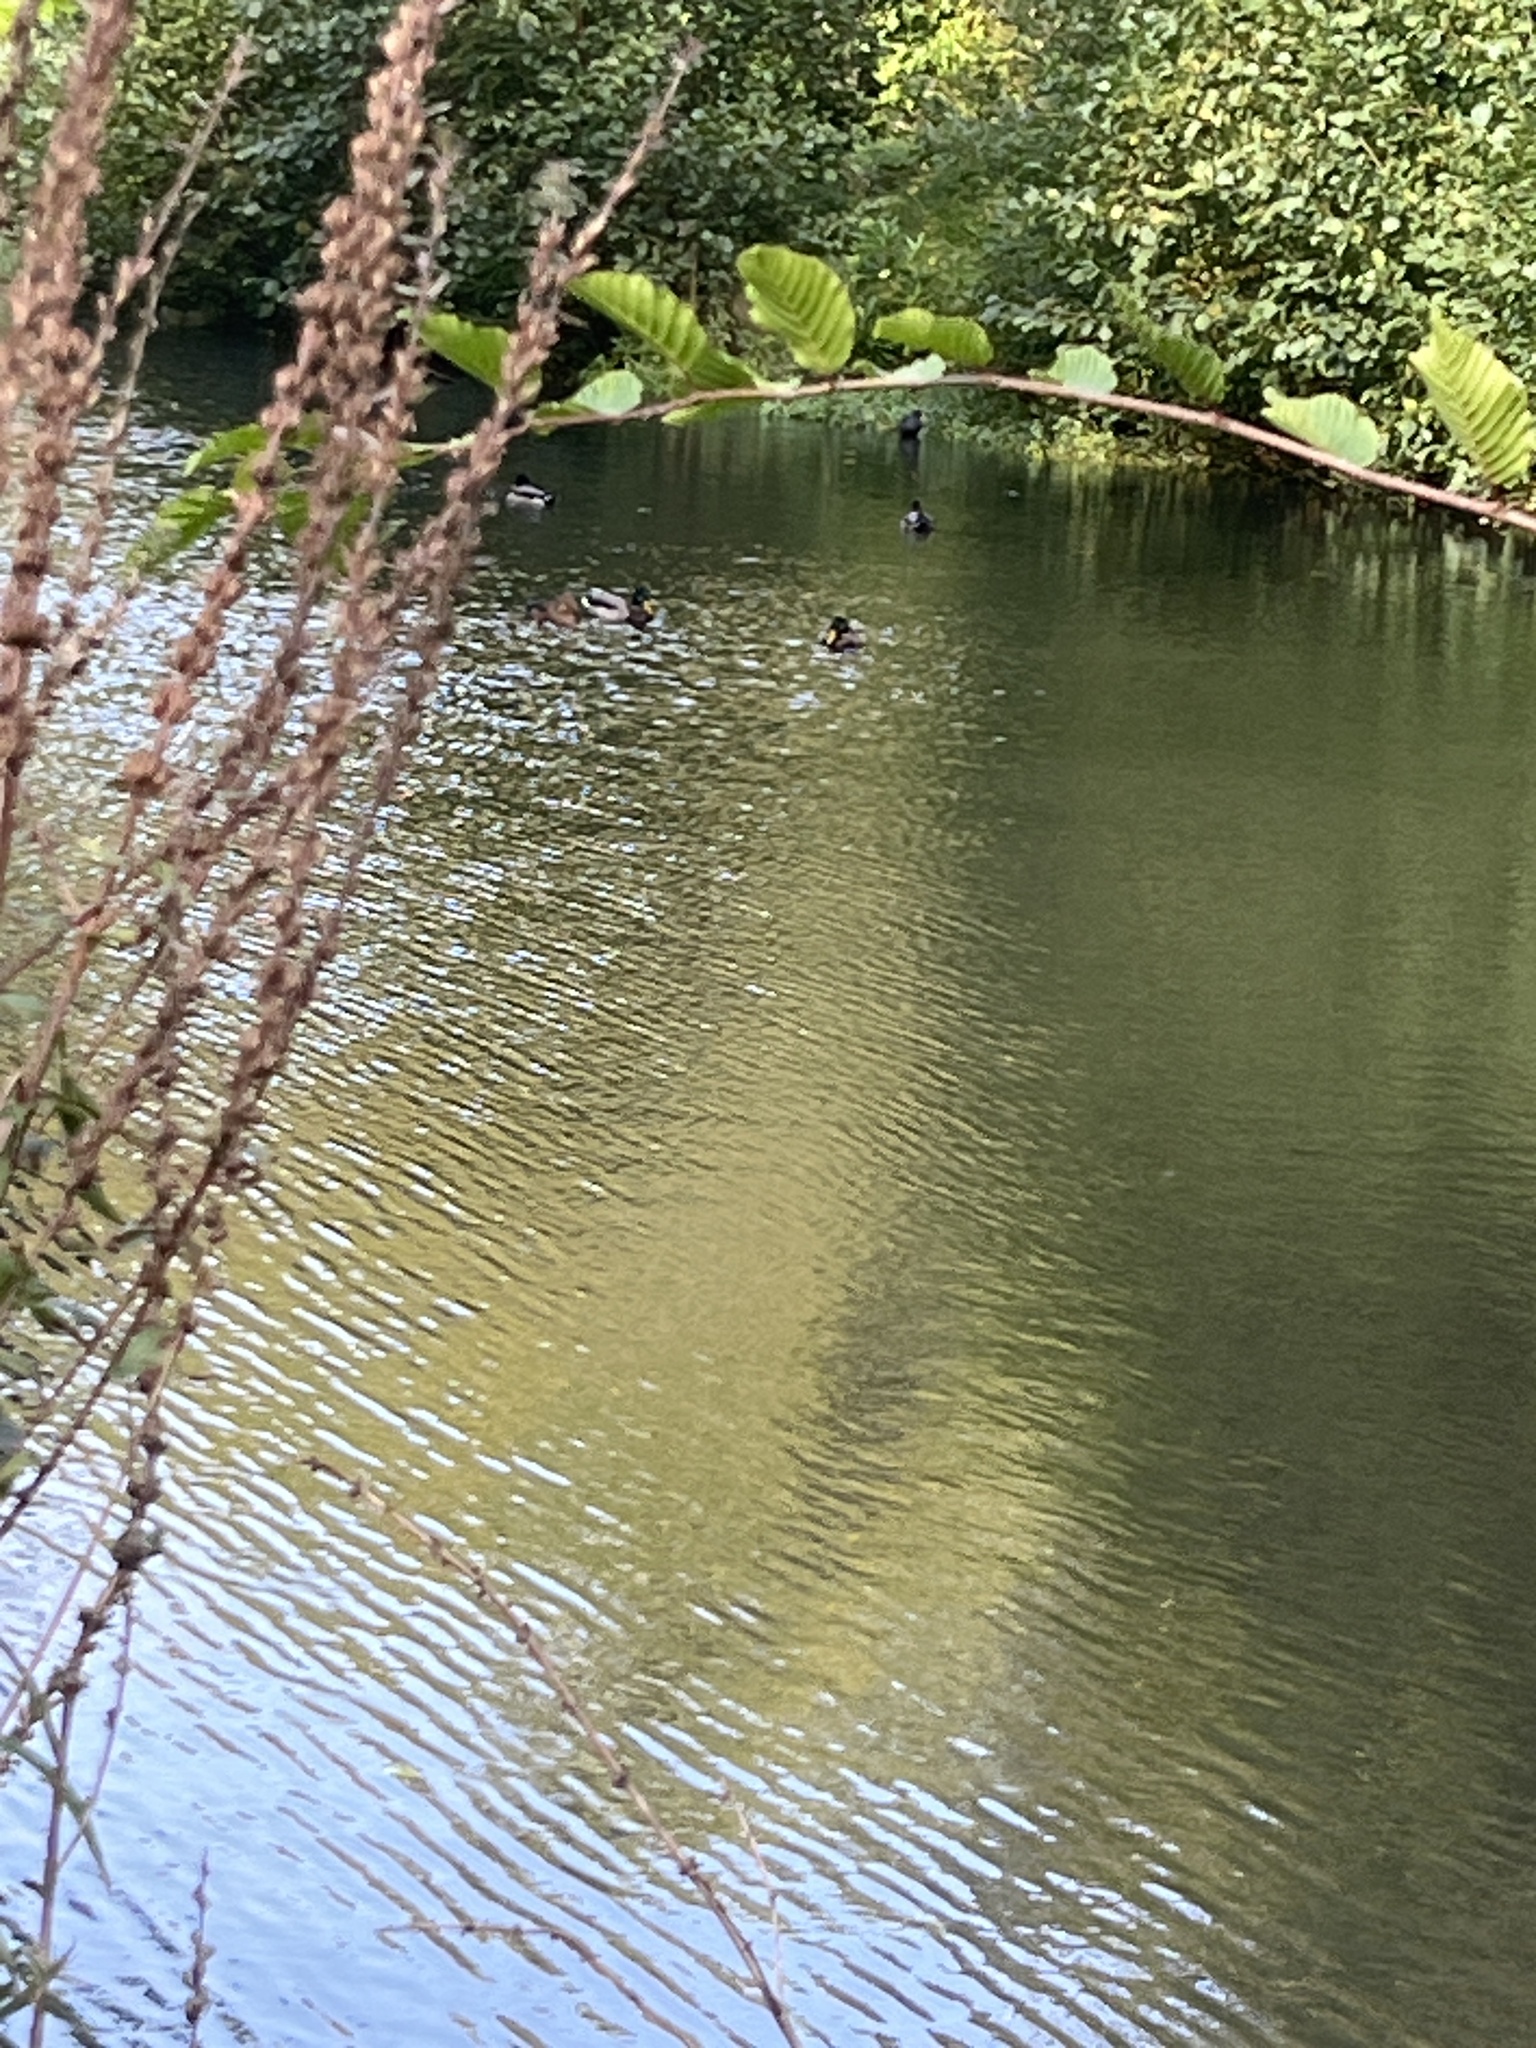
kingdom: Animalia
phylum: Chordata
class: Aves
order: Anseriformes
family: Anatidae
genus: Anas
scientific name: Anas platyrhynchos
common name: Mallard
